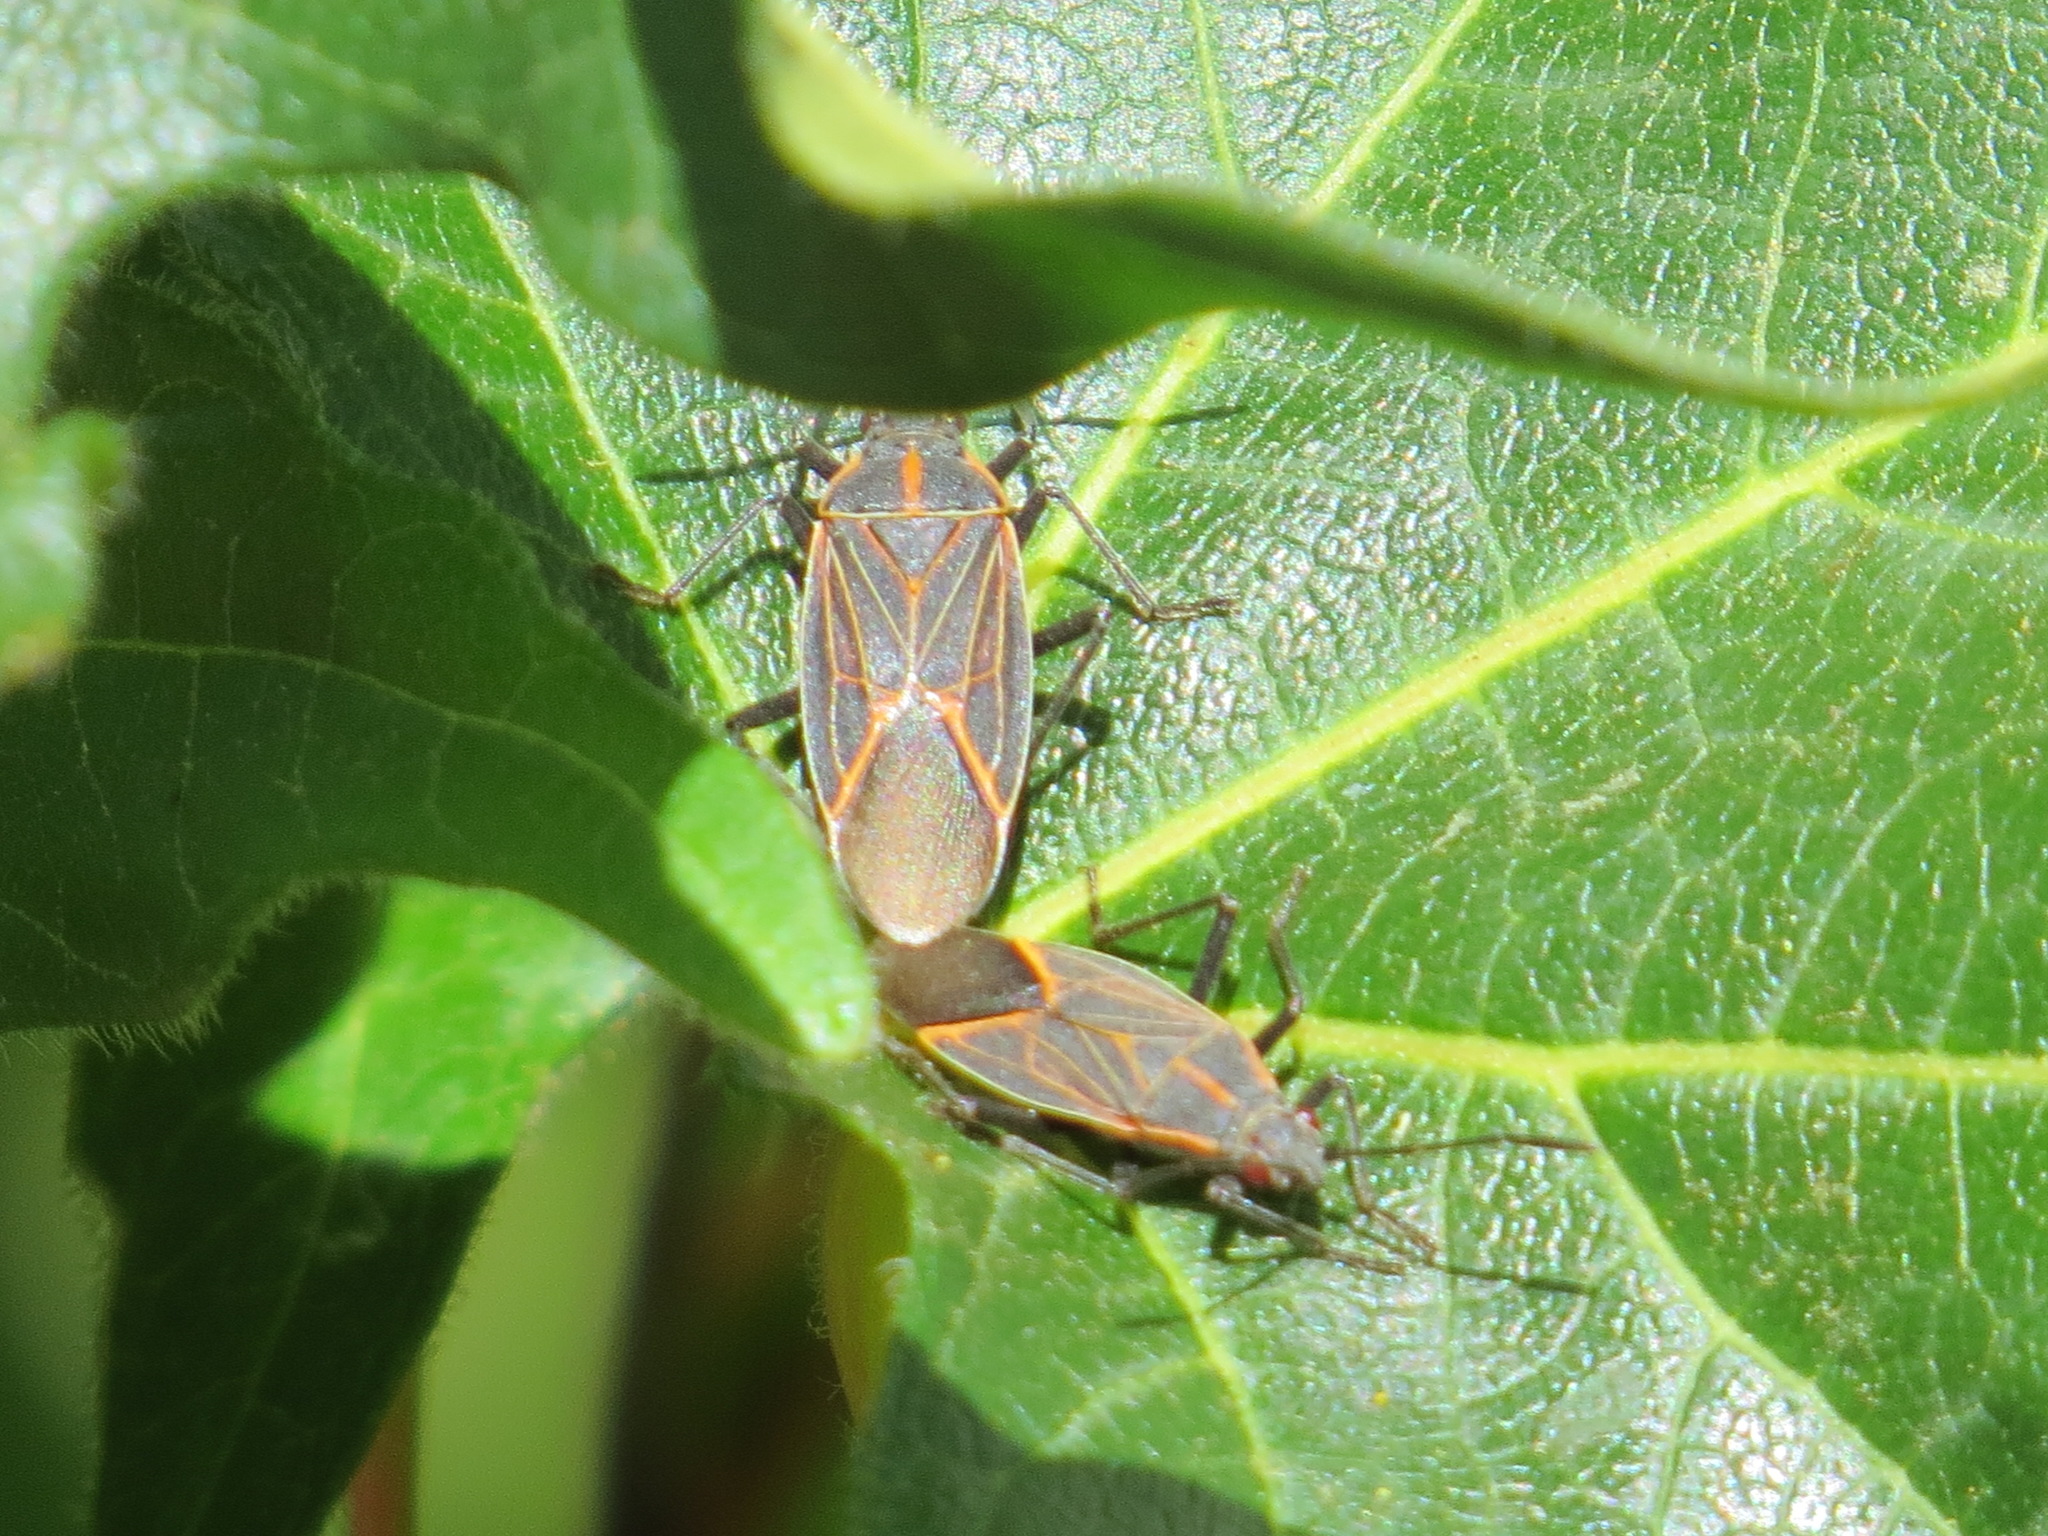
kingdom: Animalia
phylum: Arthropoda
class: Insecta
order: Hemiptera
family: Rhopalidae
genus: Boisea
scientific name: Boisea rubrolineata
